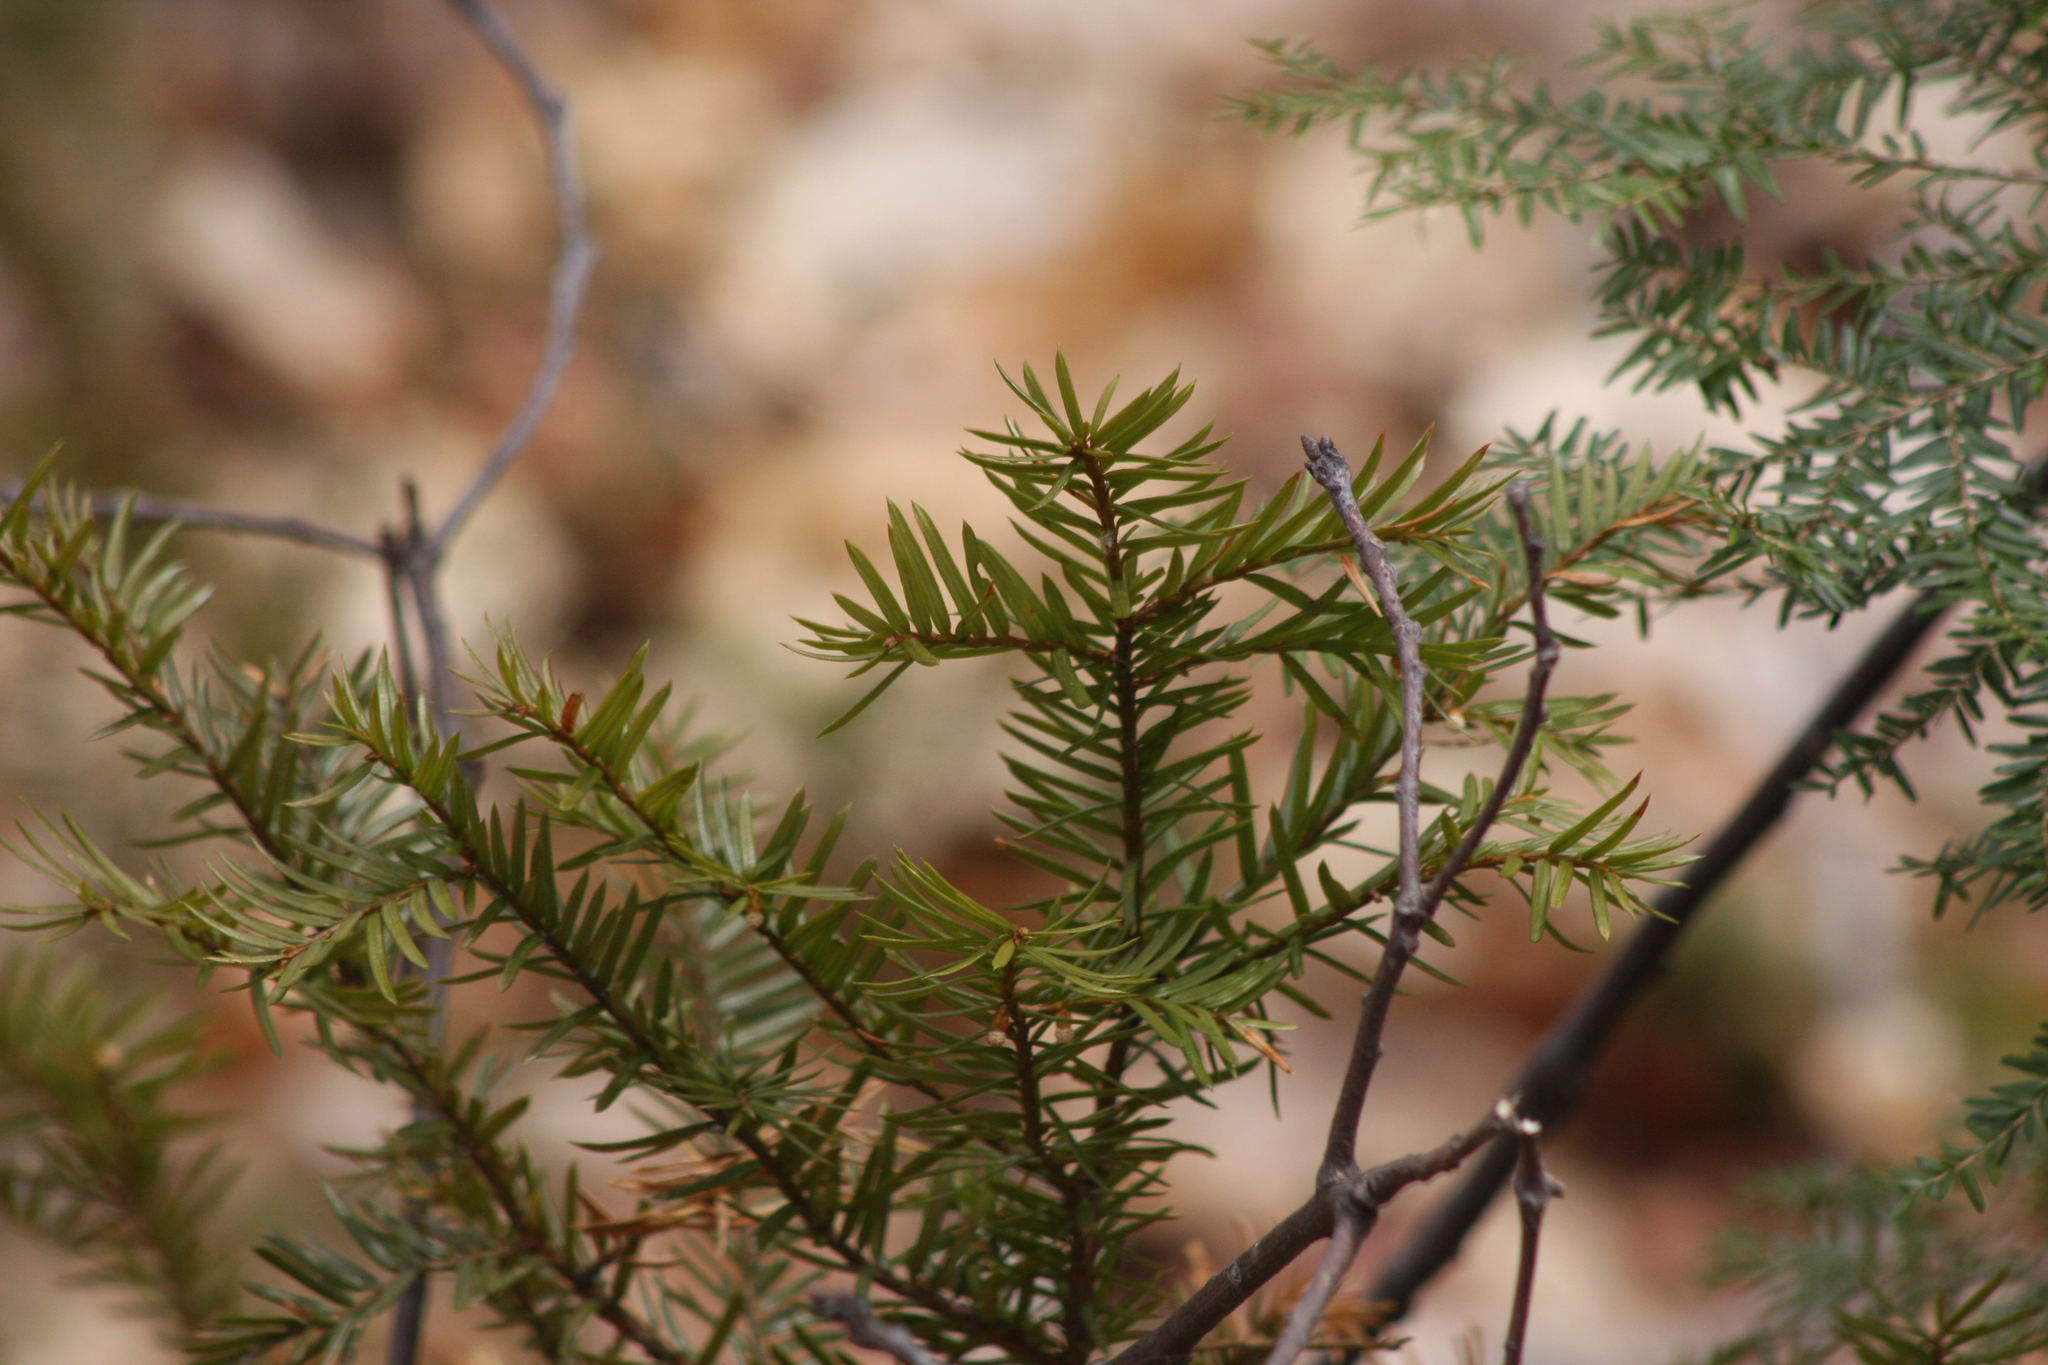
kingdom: Plantae
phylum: Tracheophyta
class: Pinopsida
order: Pinales
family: Taxaceae
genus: Taxus
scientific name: Taxus canadensis
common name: American yew
